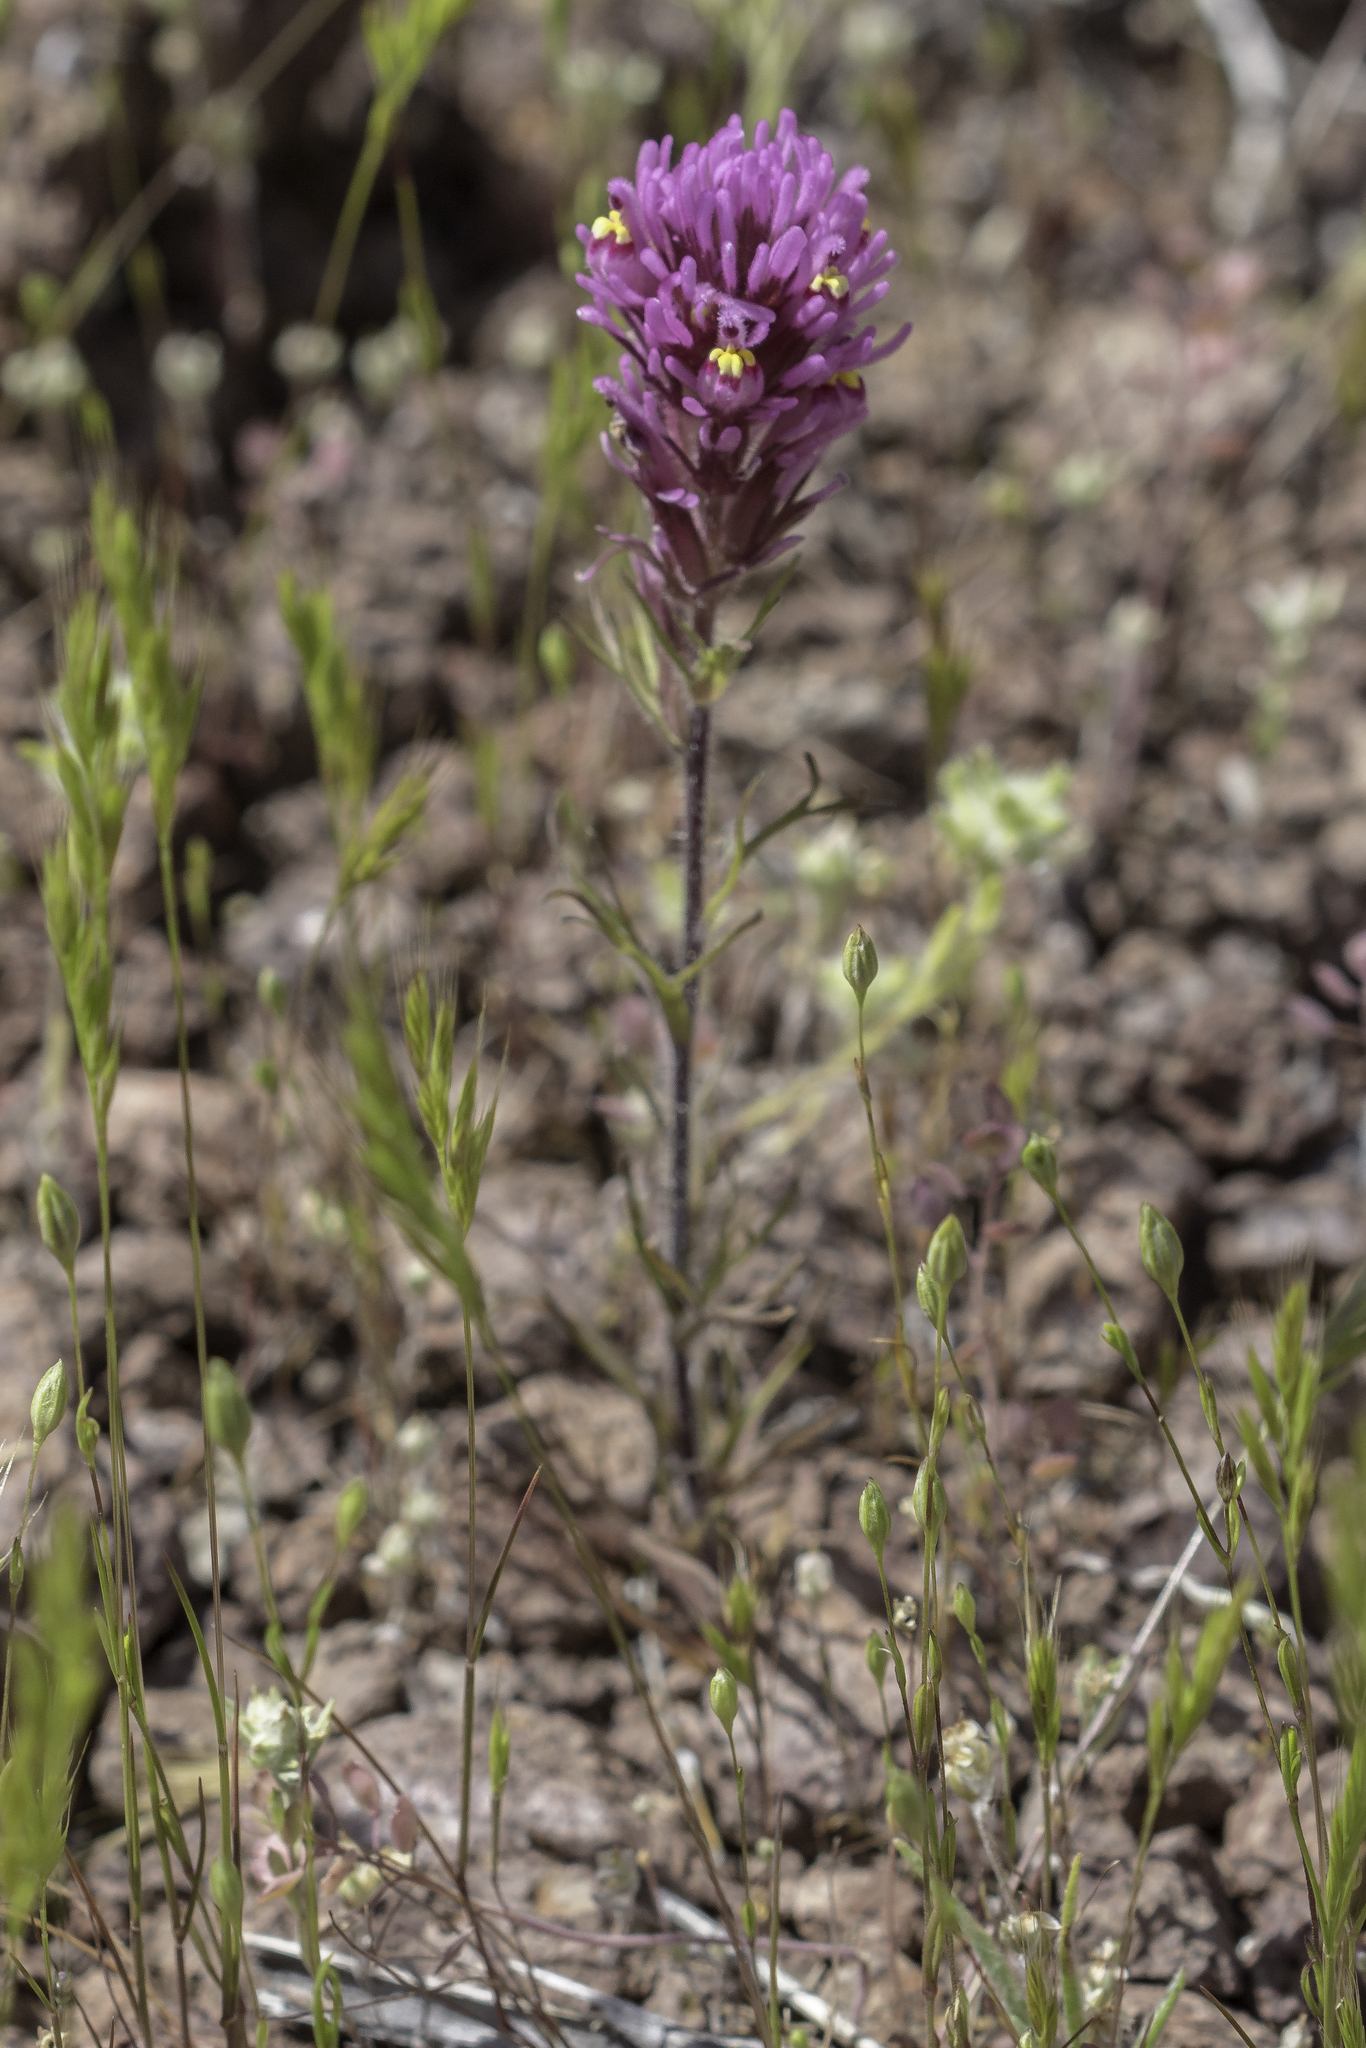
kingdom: Plantae
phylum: Tracheophyta
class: Magnoliopsida
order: Lamiales
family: Orobanchaceae
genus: Castilleja
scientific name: Castilleja exserta
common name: Purple owl-clover
